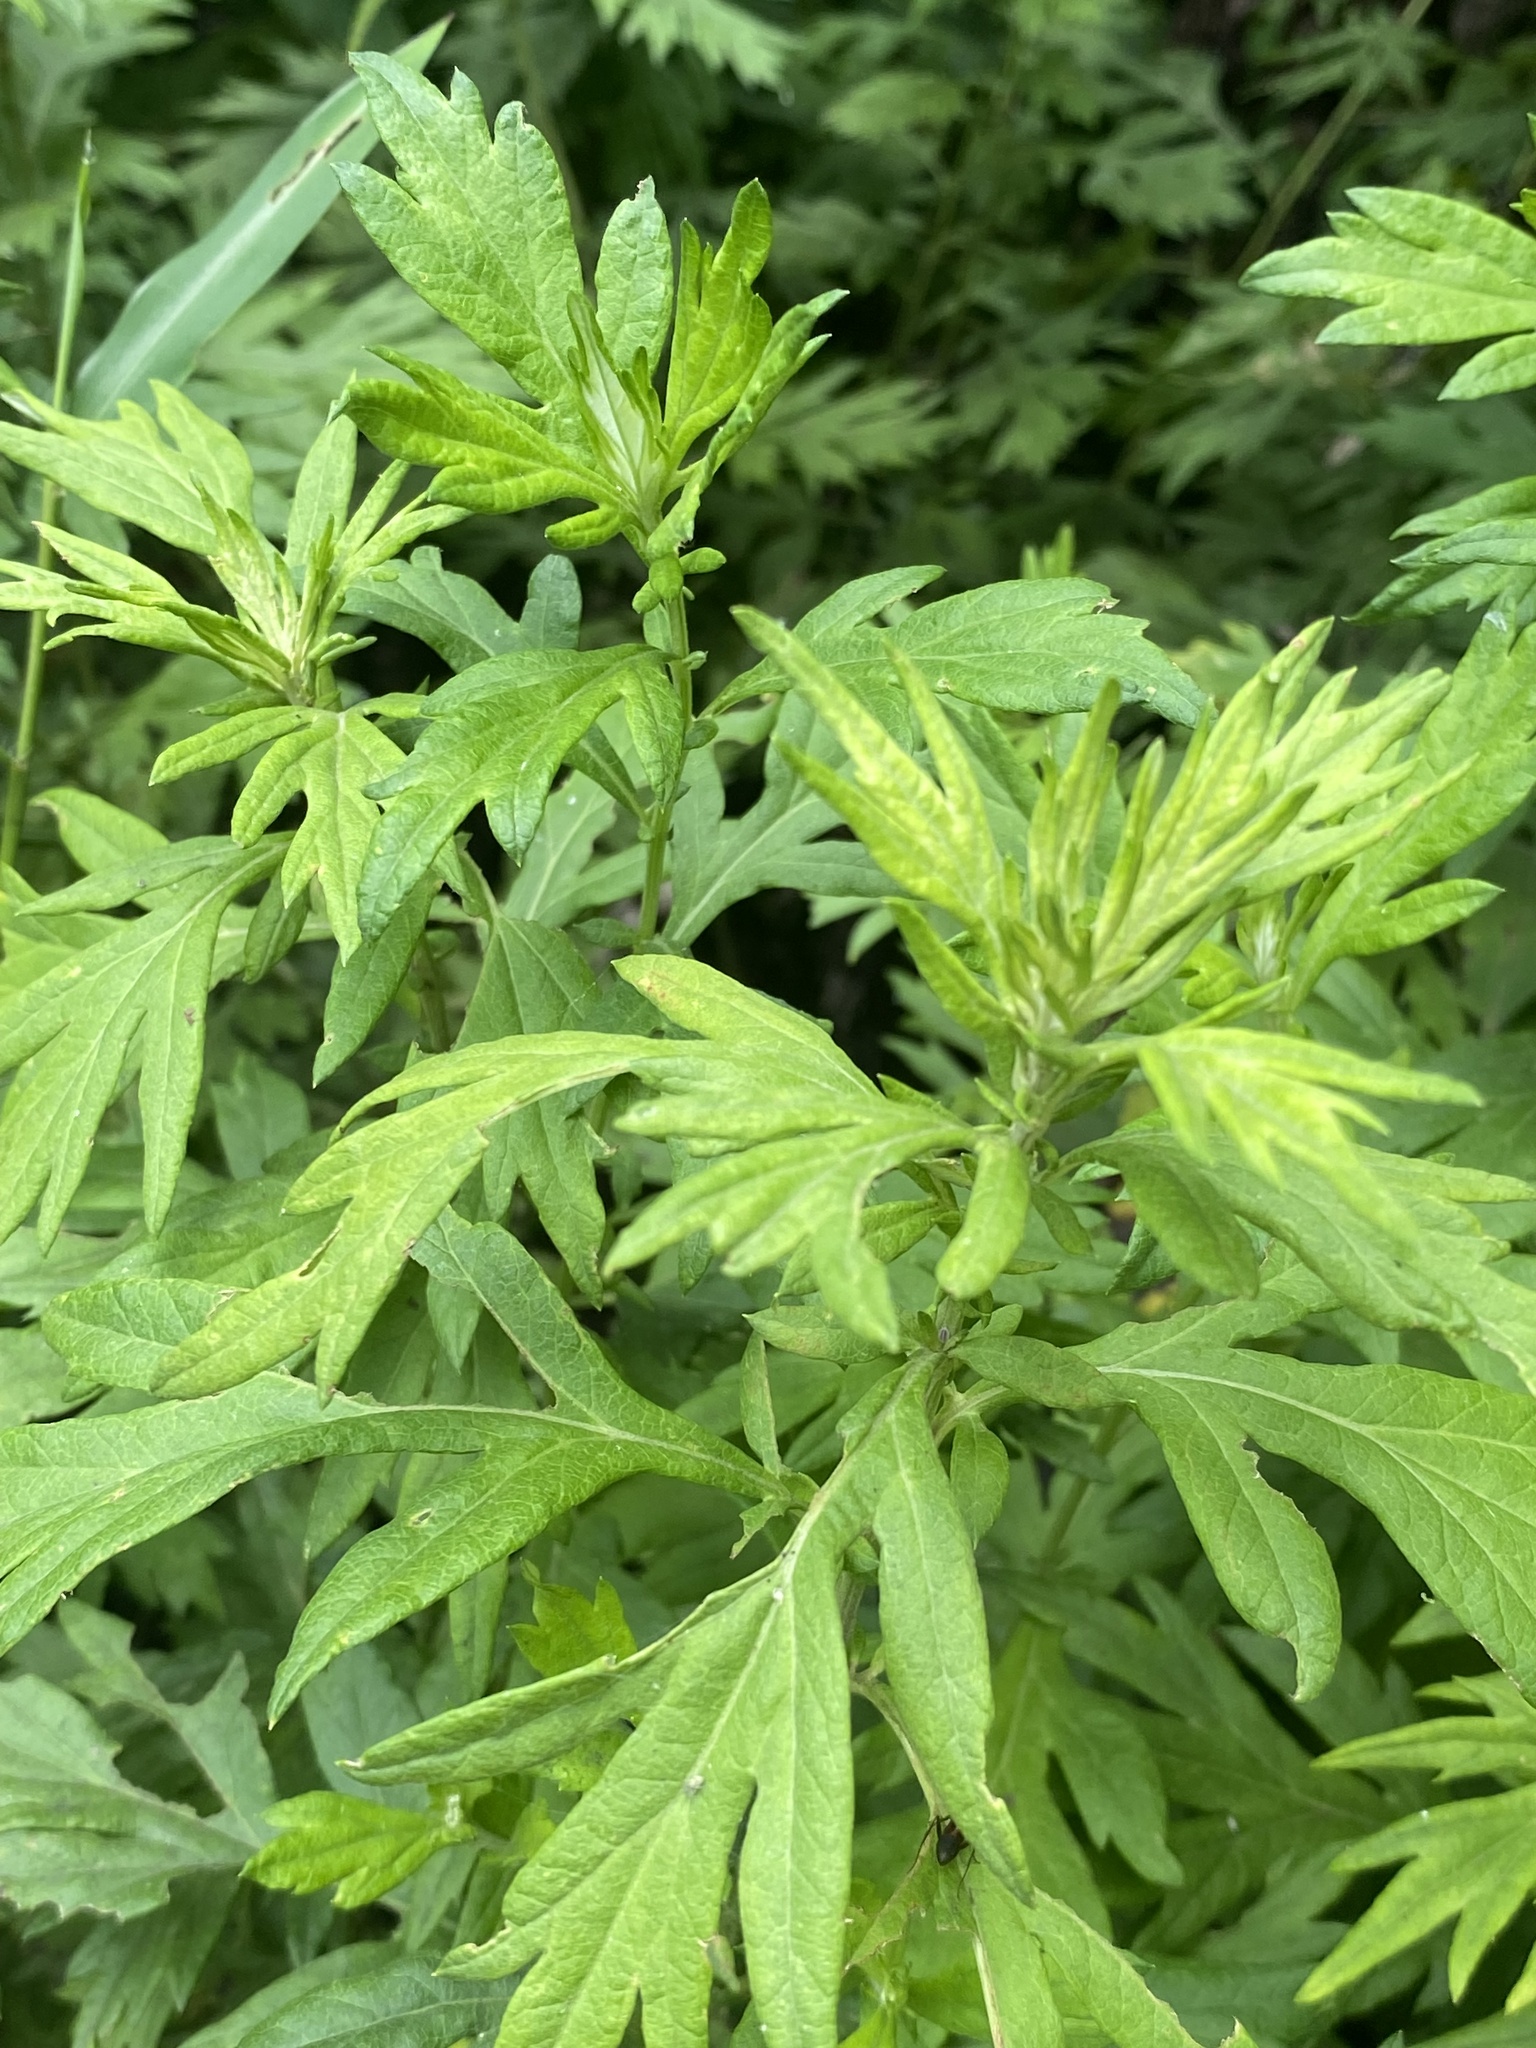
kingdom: Plantae
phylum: Tracheophyta
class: Magnoliopsida
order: Asterales
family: Asteraceae
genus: Artemisia
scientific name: Artemisia vulgaris
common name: Mugwort
